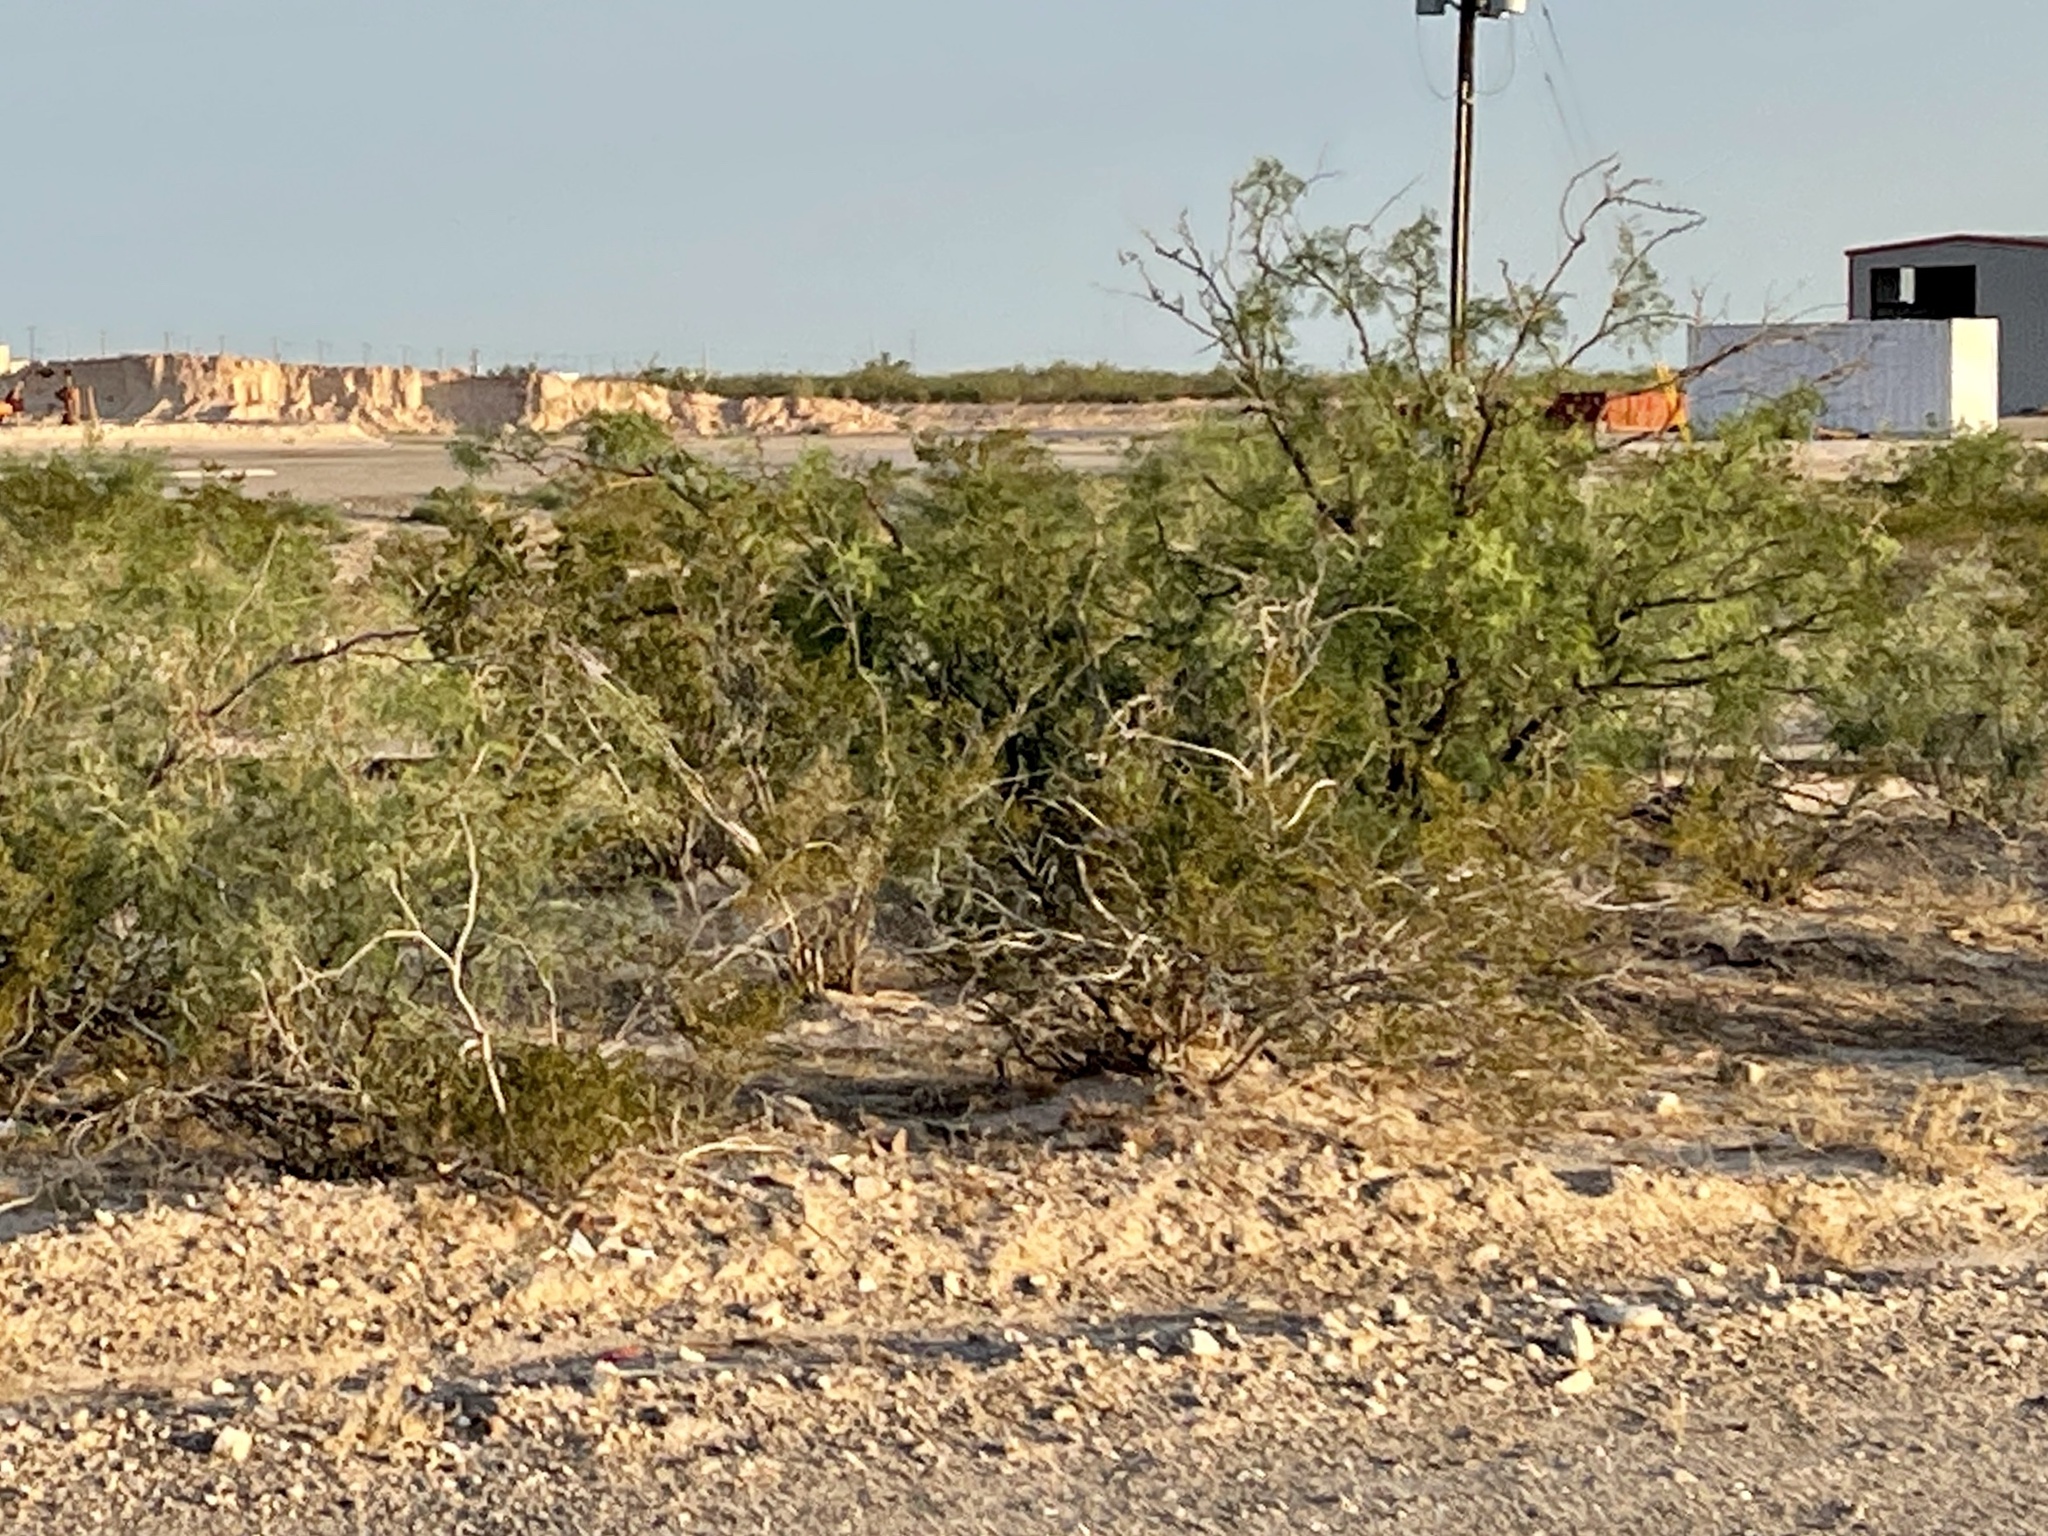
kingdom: Plantae
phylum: Tracheophyta
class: Magnoliopsida
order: Zygophyllales
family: Zygophyllaceae
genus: Larrea
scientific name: Larrea tridentata
